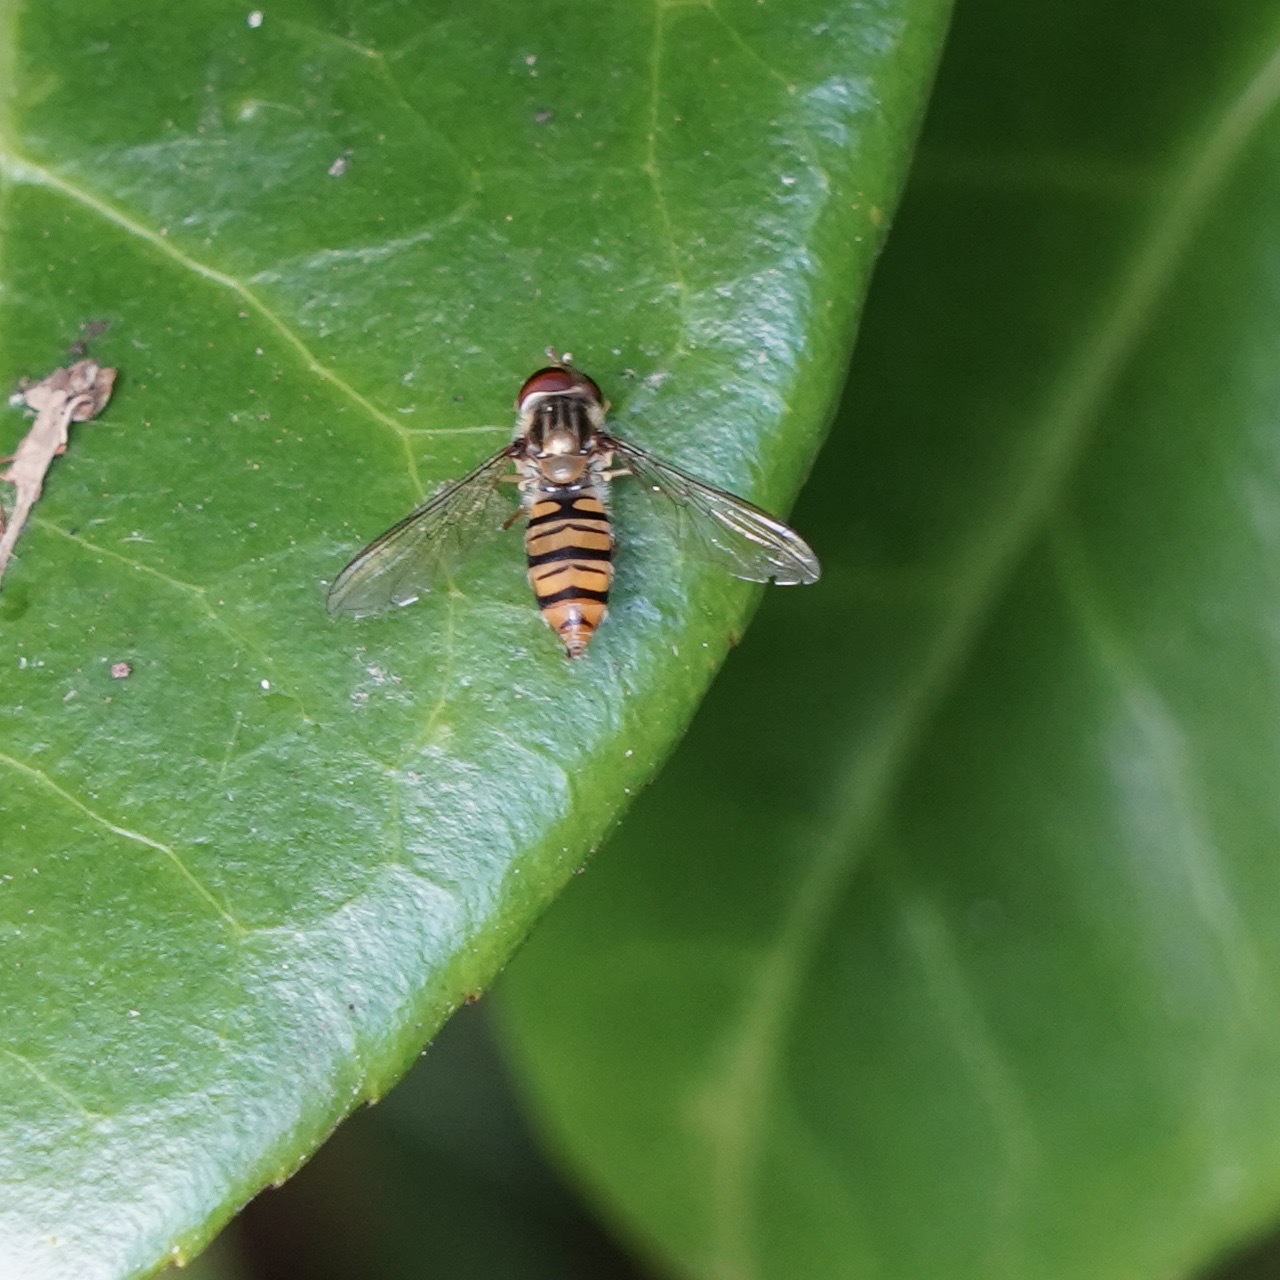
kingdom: Animalia
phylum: Arthropoda
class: Insecta
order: Diptera
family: Syrphidae
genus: Episyrphus
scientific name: Episyrphus balteatus
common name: Marmalade hoverfly
